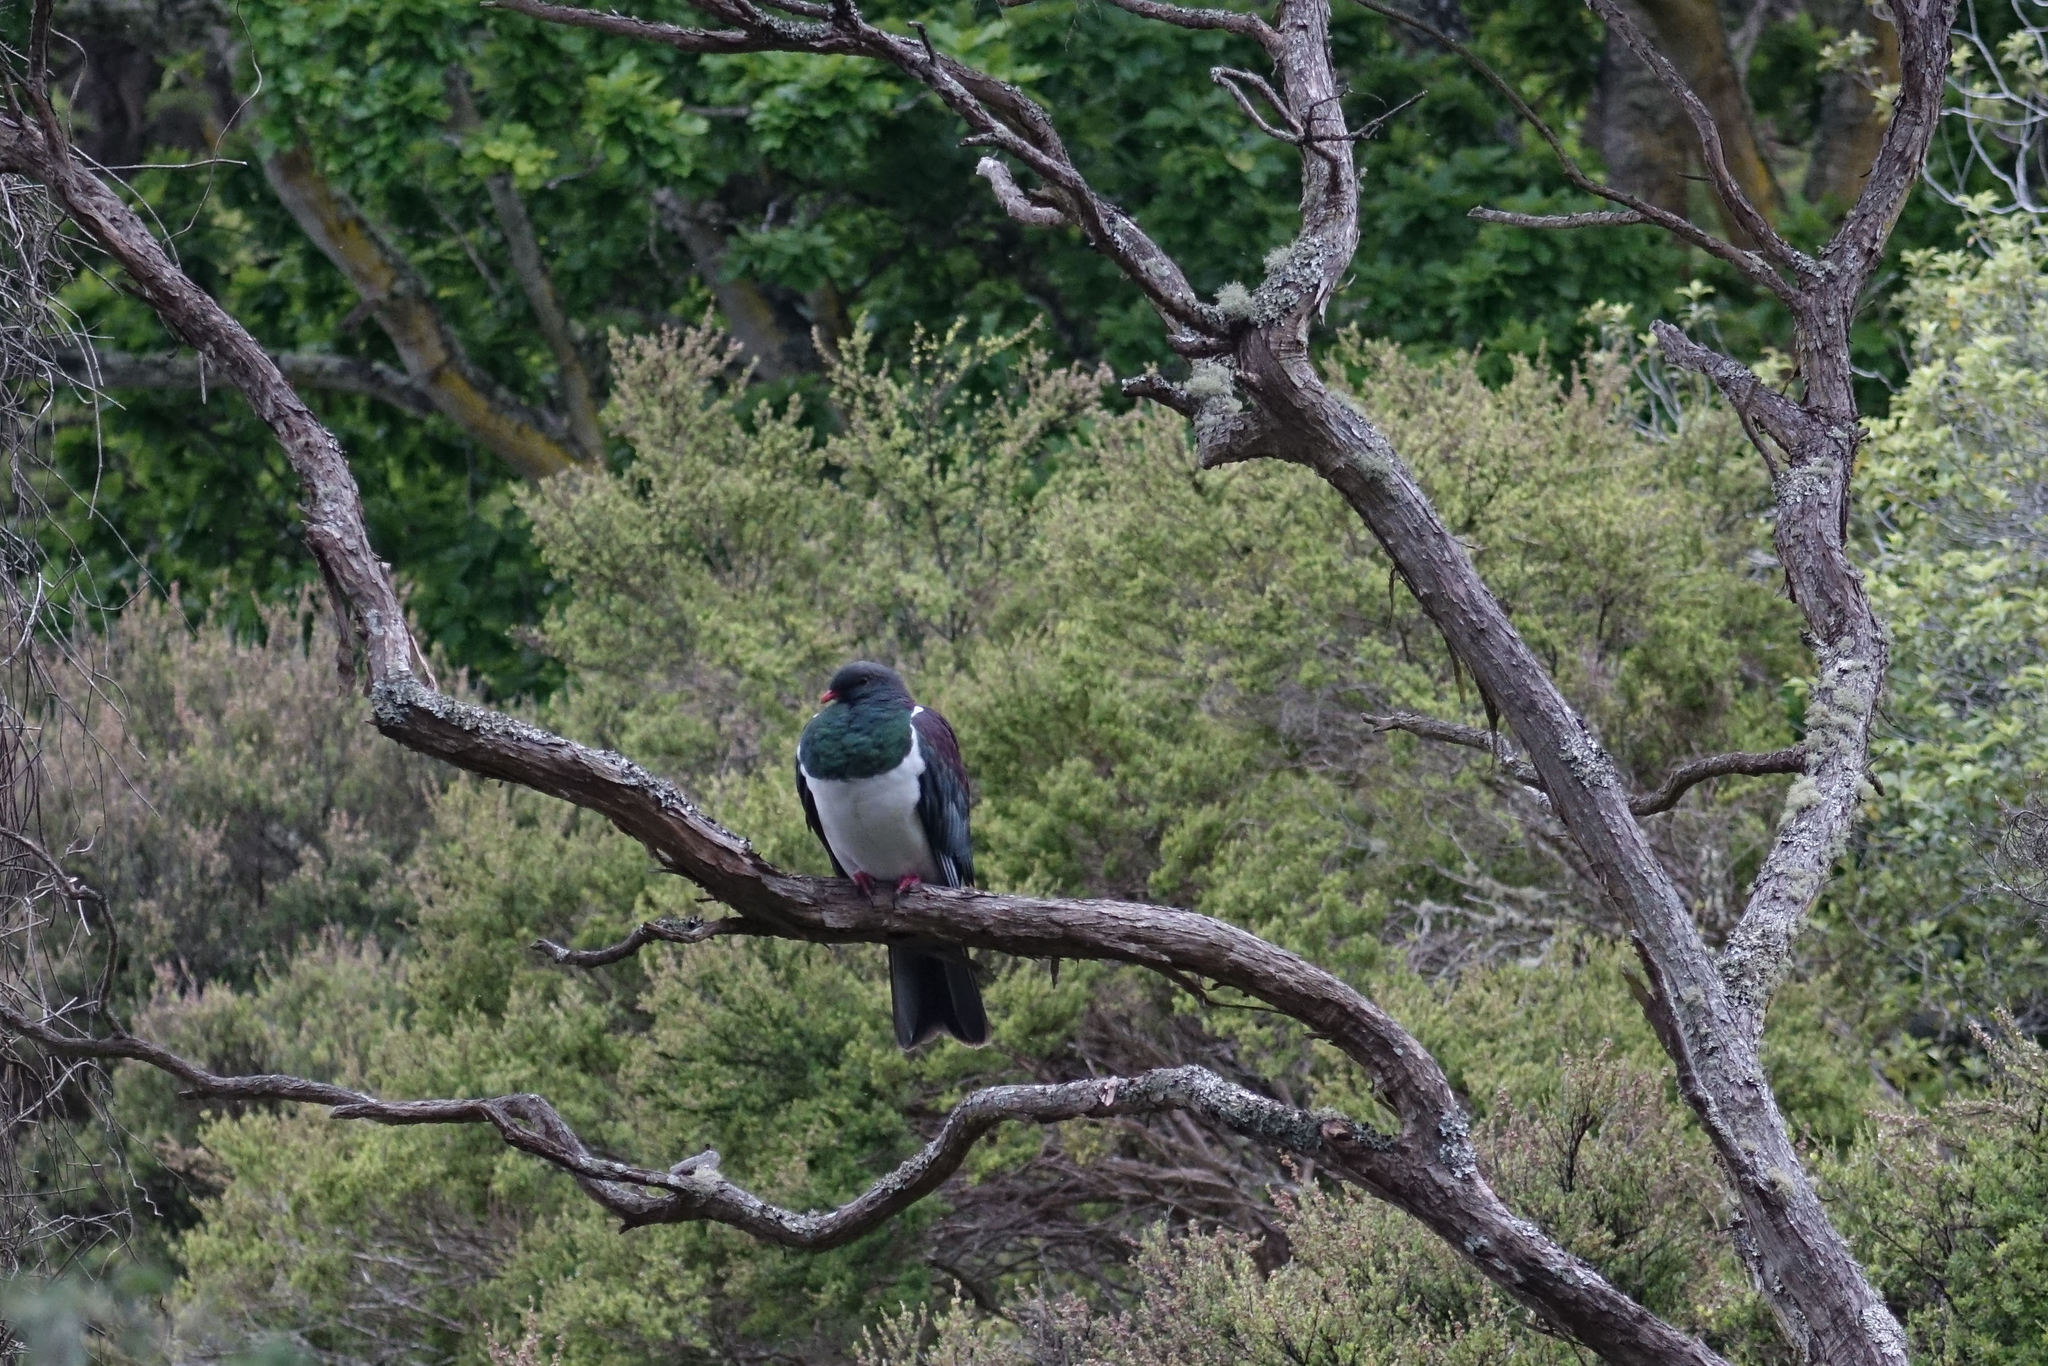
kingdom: Animalia
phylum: Chordata
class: Aves
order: Columbiformes
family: Columbidae
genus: Hemiphaga
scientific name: Hemiphaga novaeseelandiae
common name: New zealand pigeon
